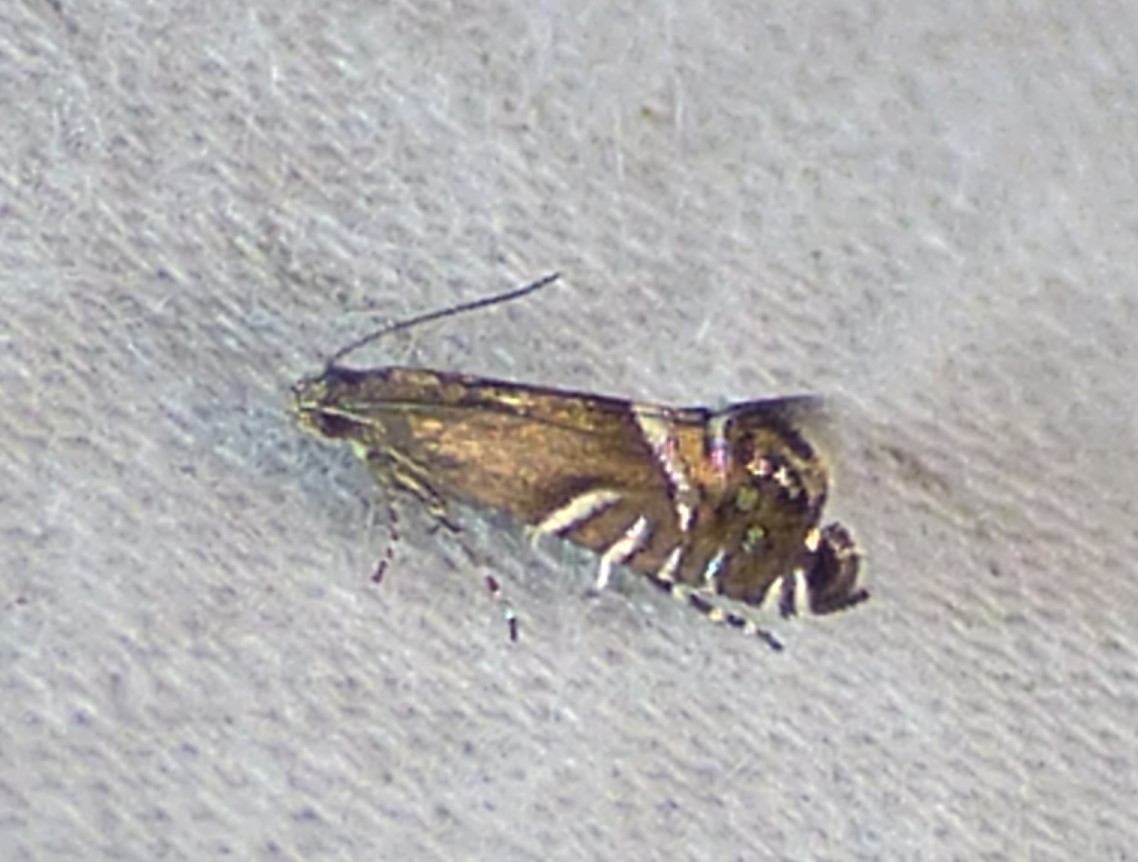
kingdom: Animalia
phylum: Arthropoda
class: Insecta
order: Lepidoptera
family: Glyphipterigidae
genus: Glyphipterix
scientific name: Glyphipterix Diploschizia impigritella
